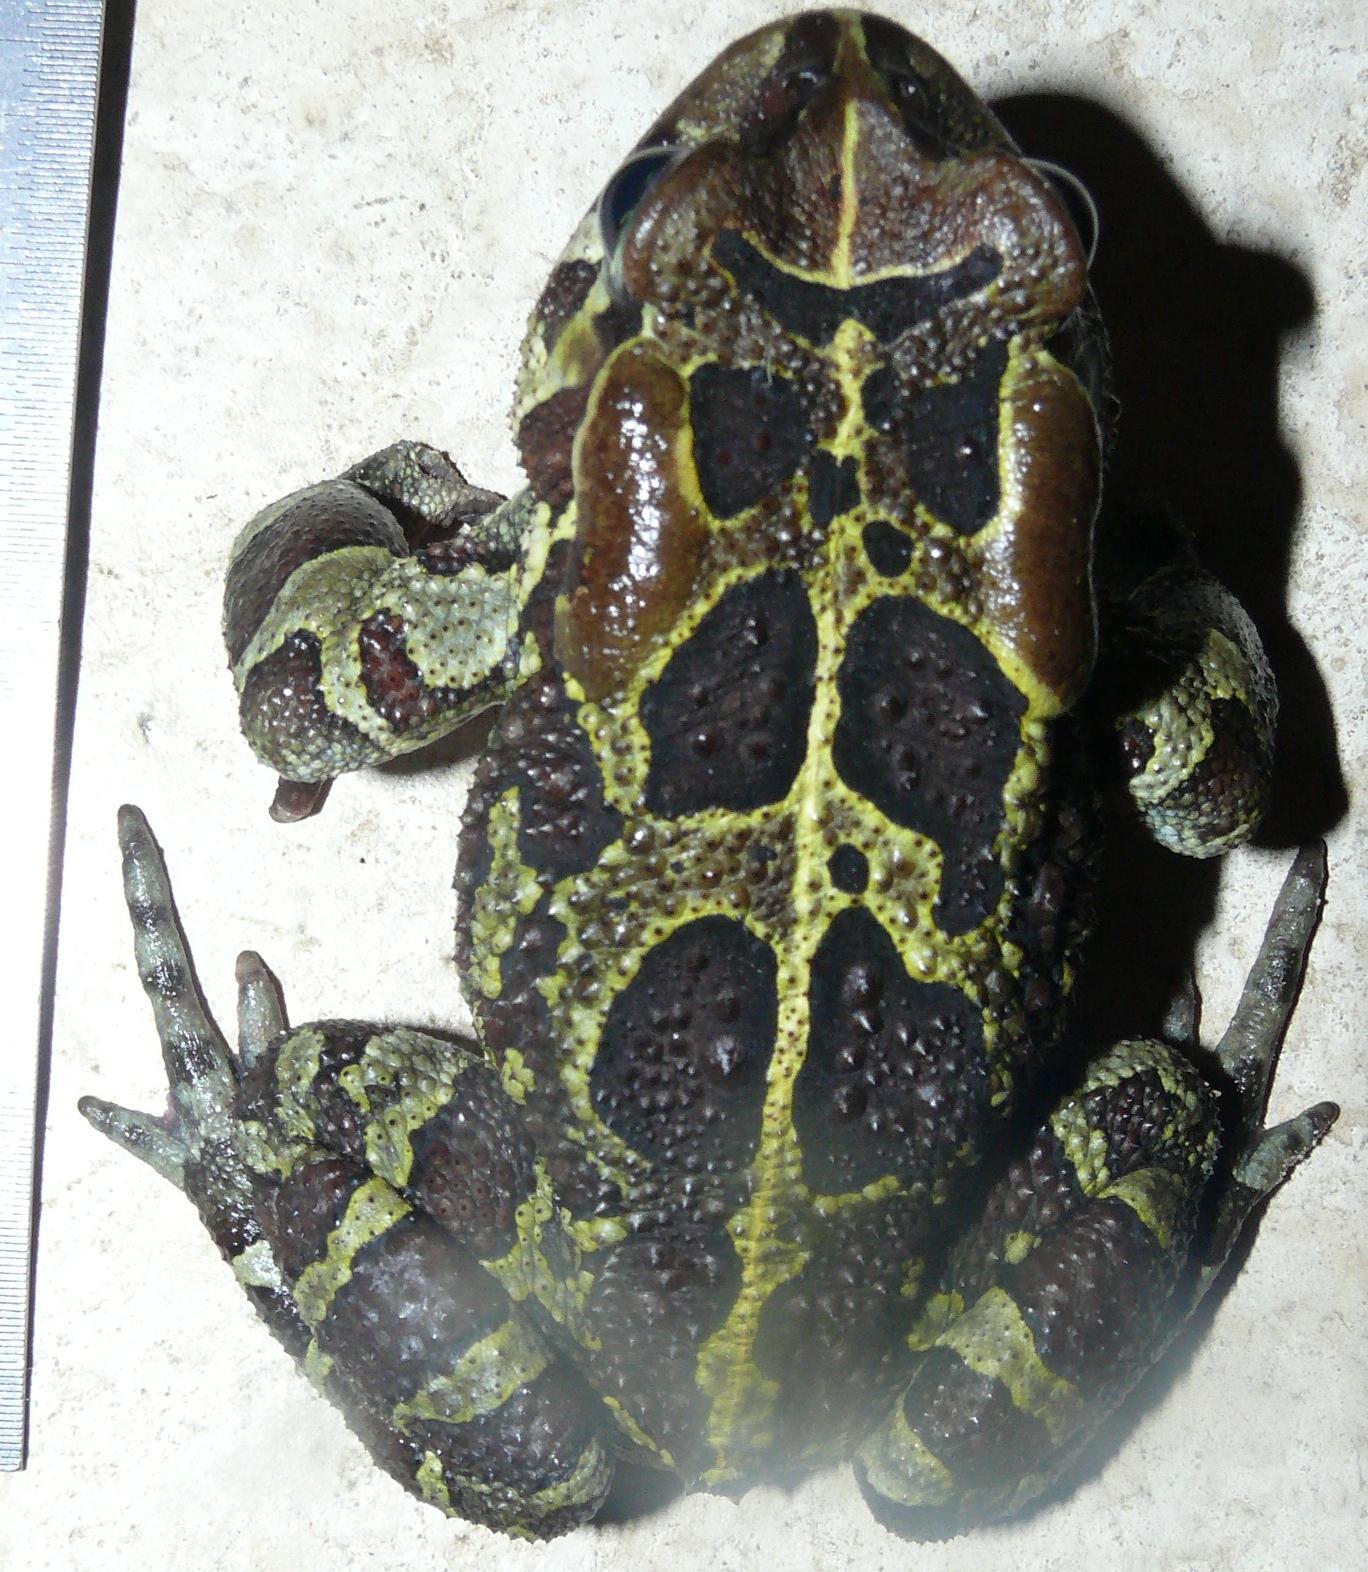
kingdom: Animalia
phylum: Chordata
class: Amphibia
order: Anura
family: Bufonidae
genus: Sclerophrys
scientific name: Sclerophrys pantherina
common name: Panther toad
